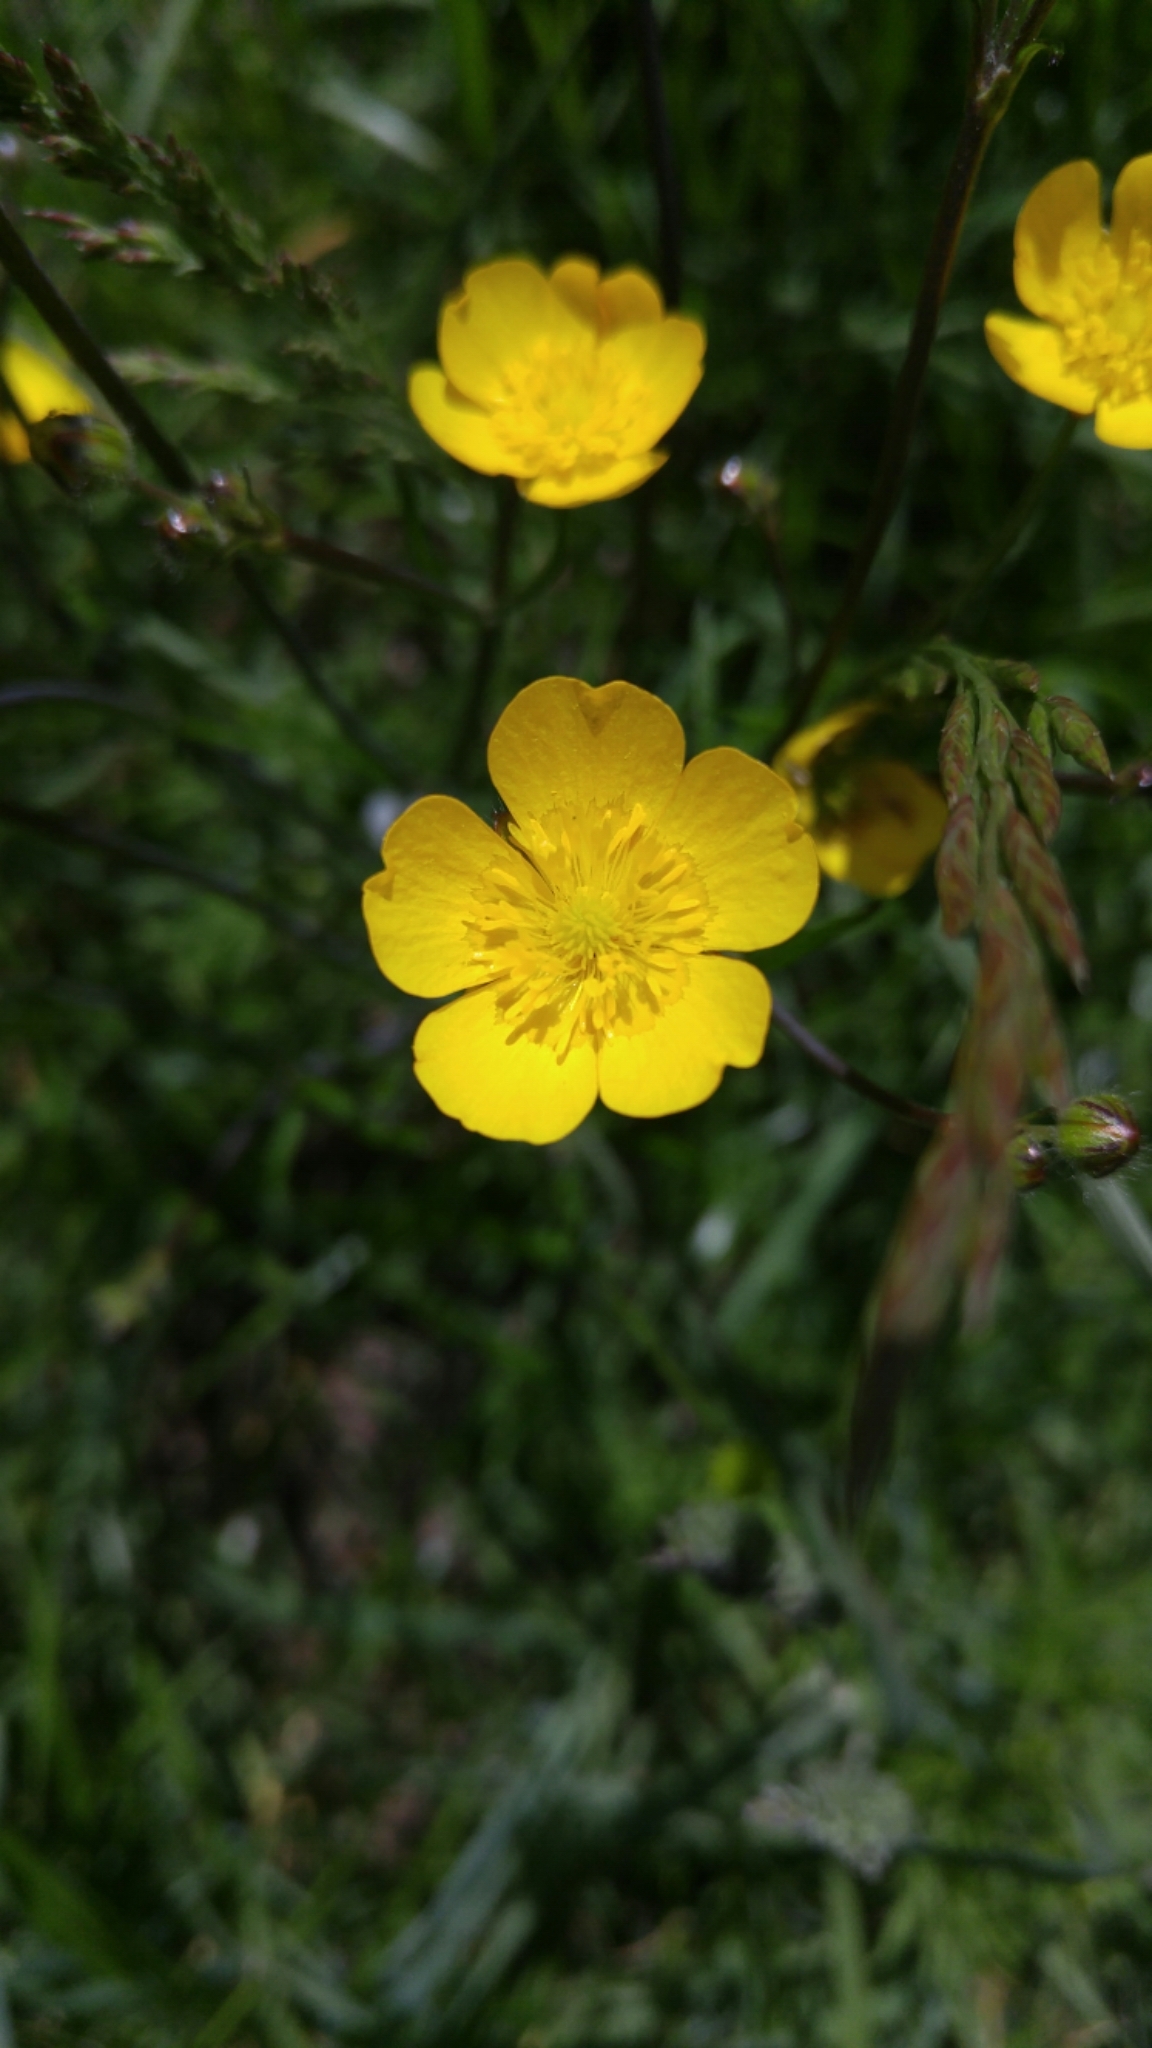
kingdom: Plantae
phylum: Tracheophyta
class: Magnoliopsida
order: Ranunculales
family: Ranunculaceae
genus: Ranunculus
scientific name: Ranunculus acris
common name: Meadow buttercup
